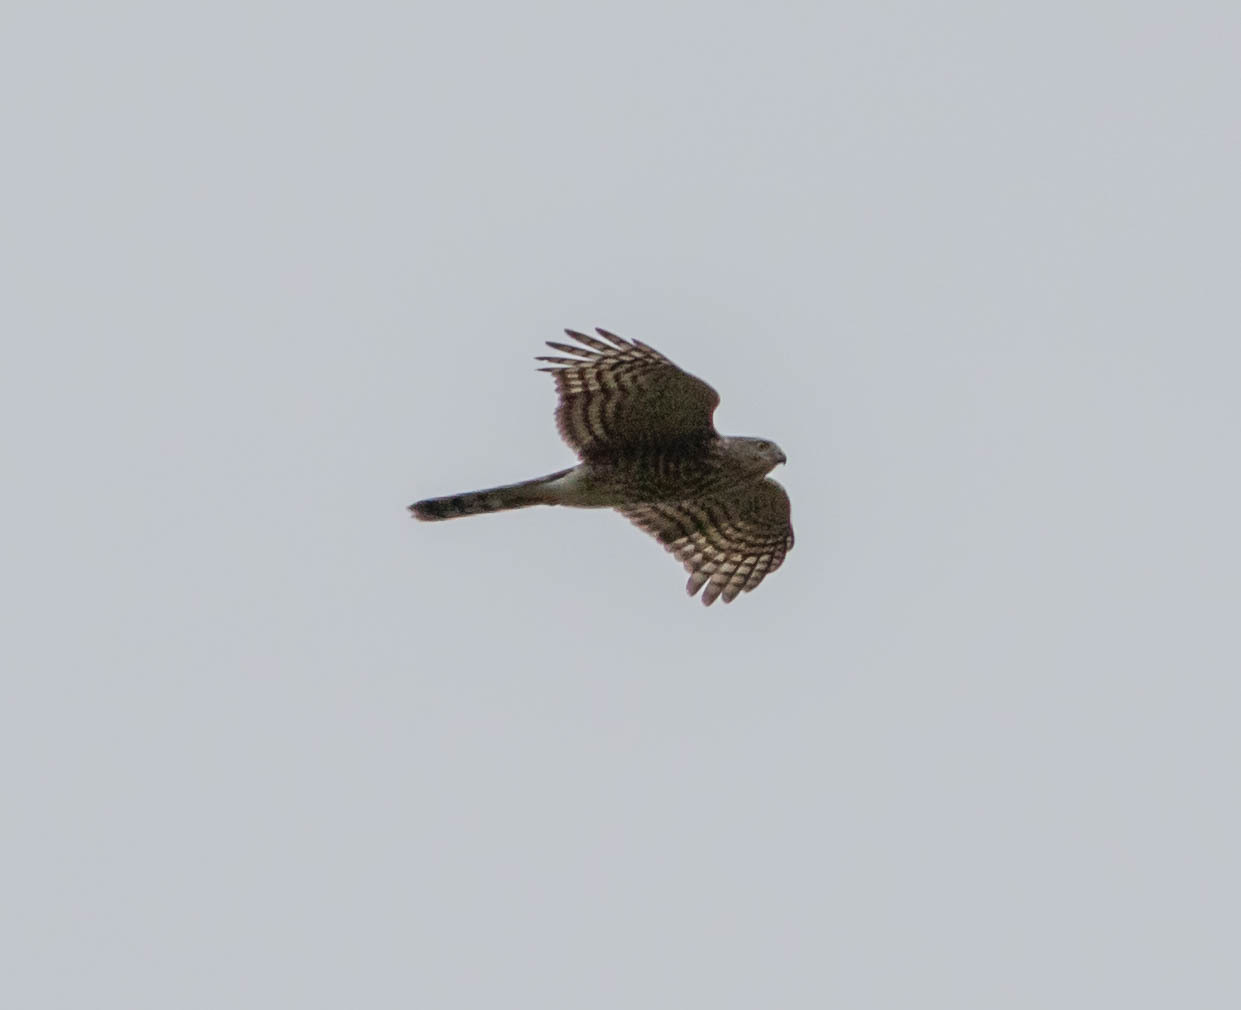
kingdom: Animalia
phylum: Chordata
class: Aves
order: Accipitriformes
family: Accipitridae
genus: Accipiter
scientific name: Accipiter striatus
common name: Sharp-shinned hawk
